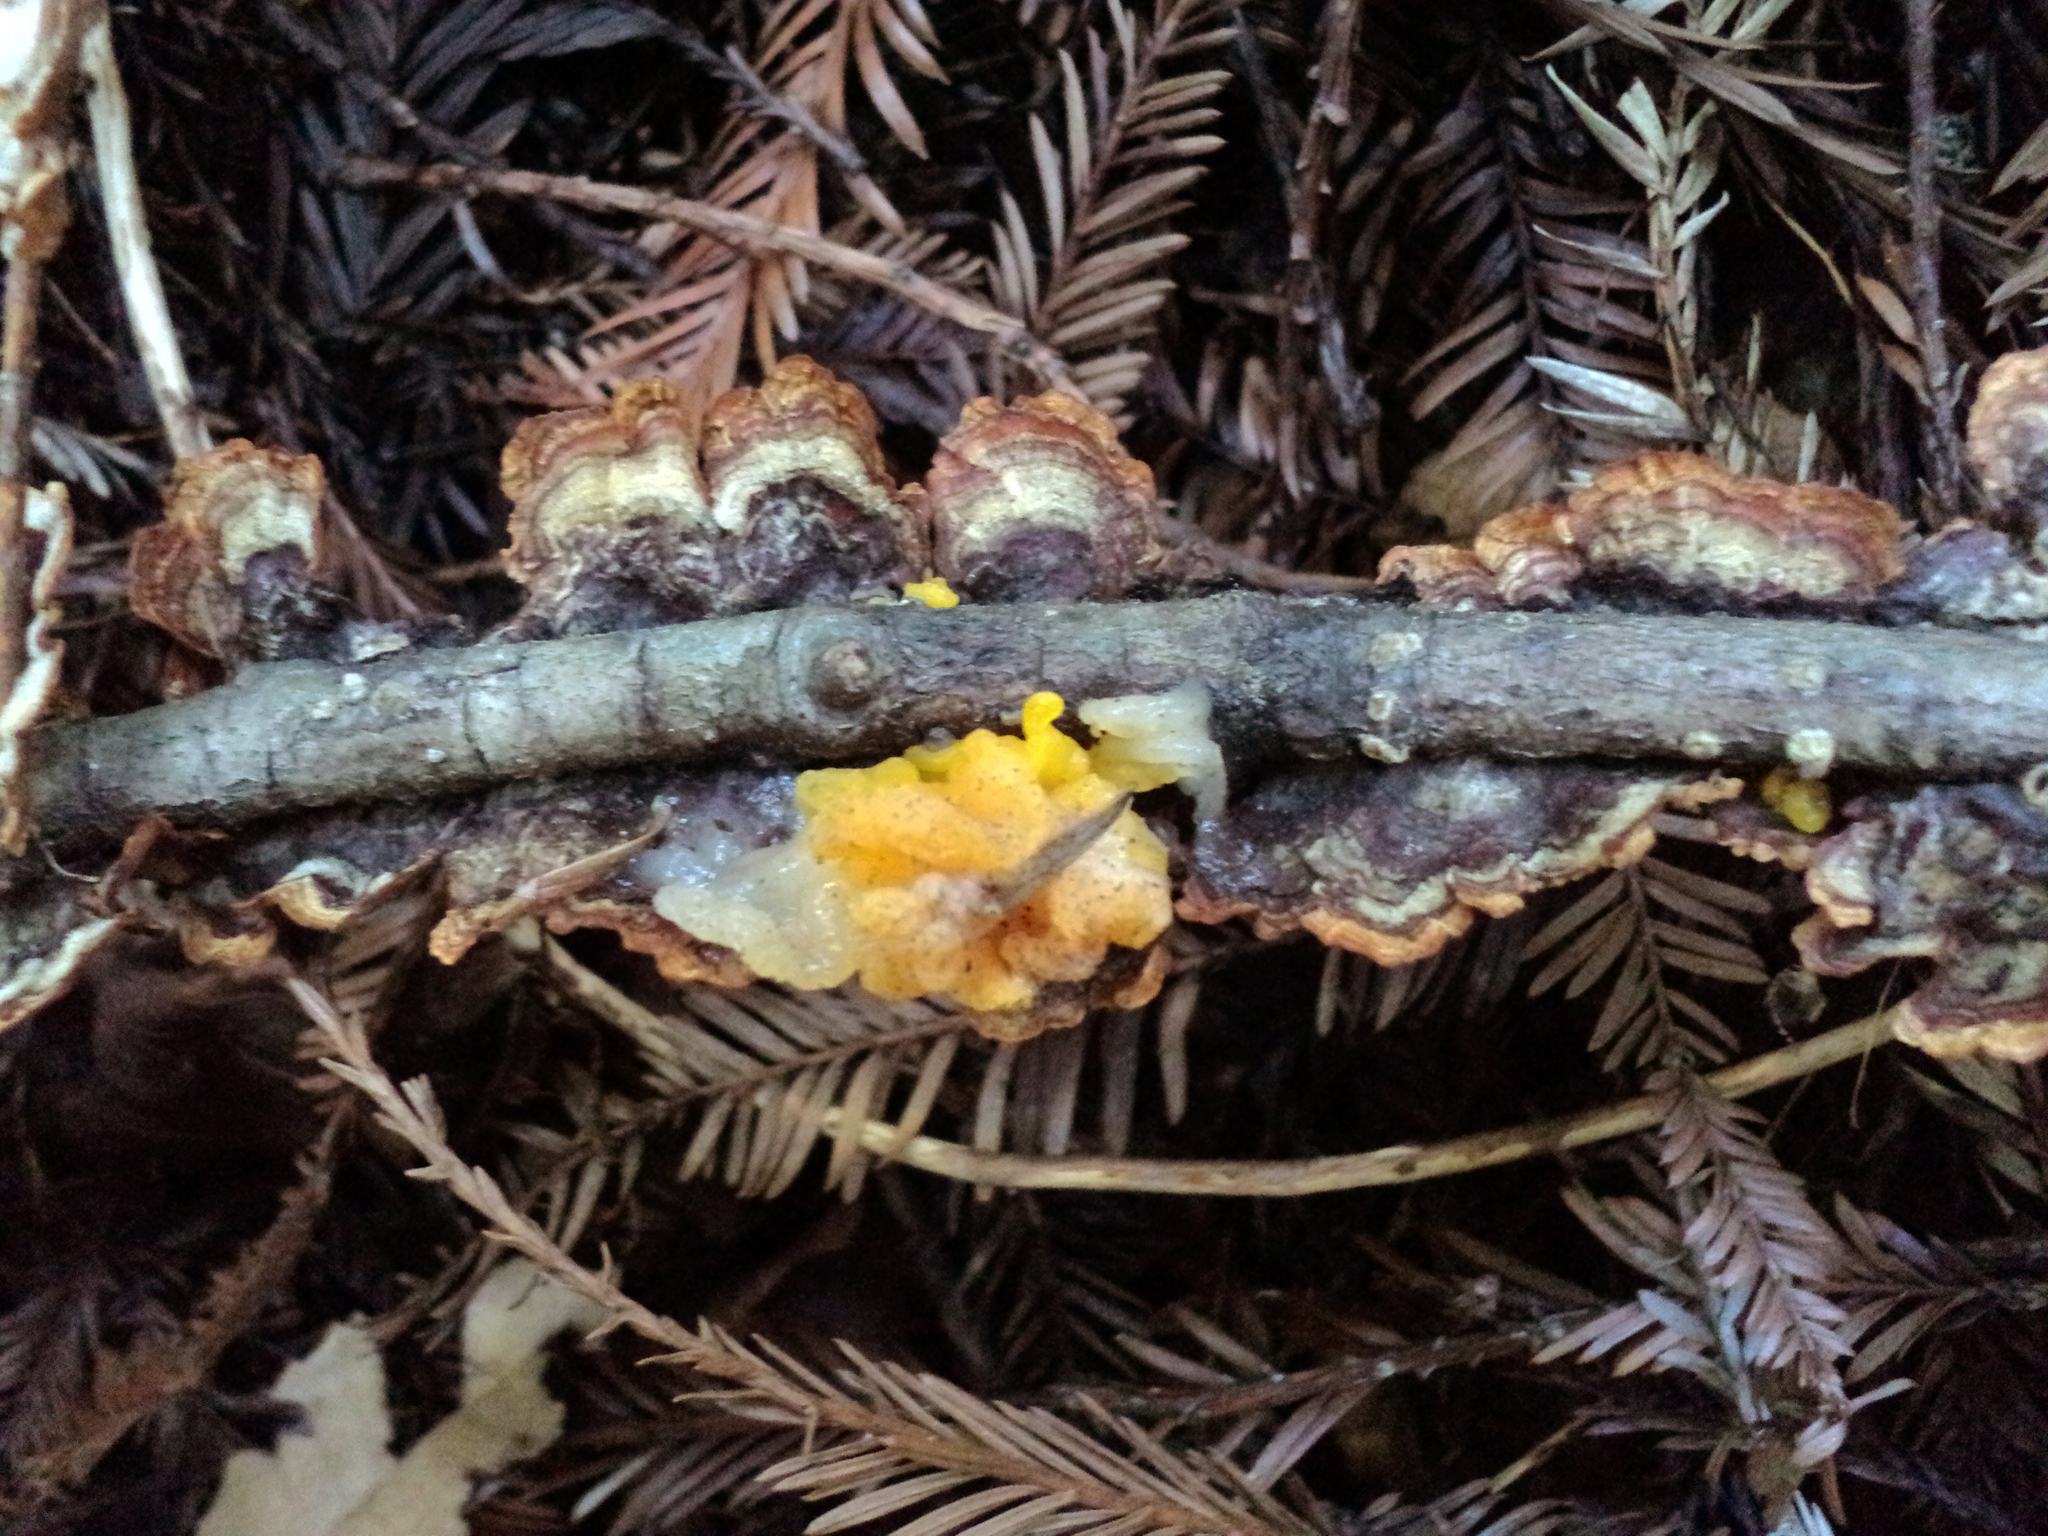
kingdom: Fungi
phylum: Basidiomycota
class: Tremellomycetes
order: Tremellales
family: Naemateliaceae
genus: Naematelia
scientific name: Naematelia aurantia
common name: Golden ear
